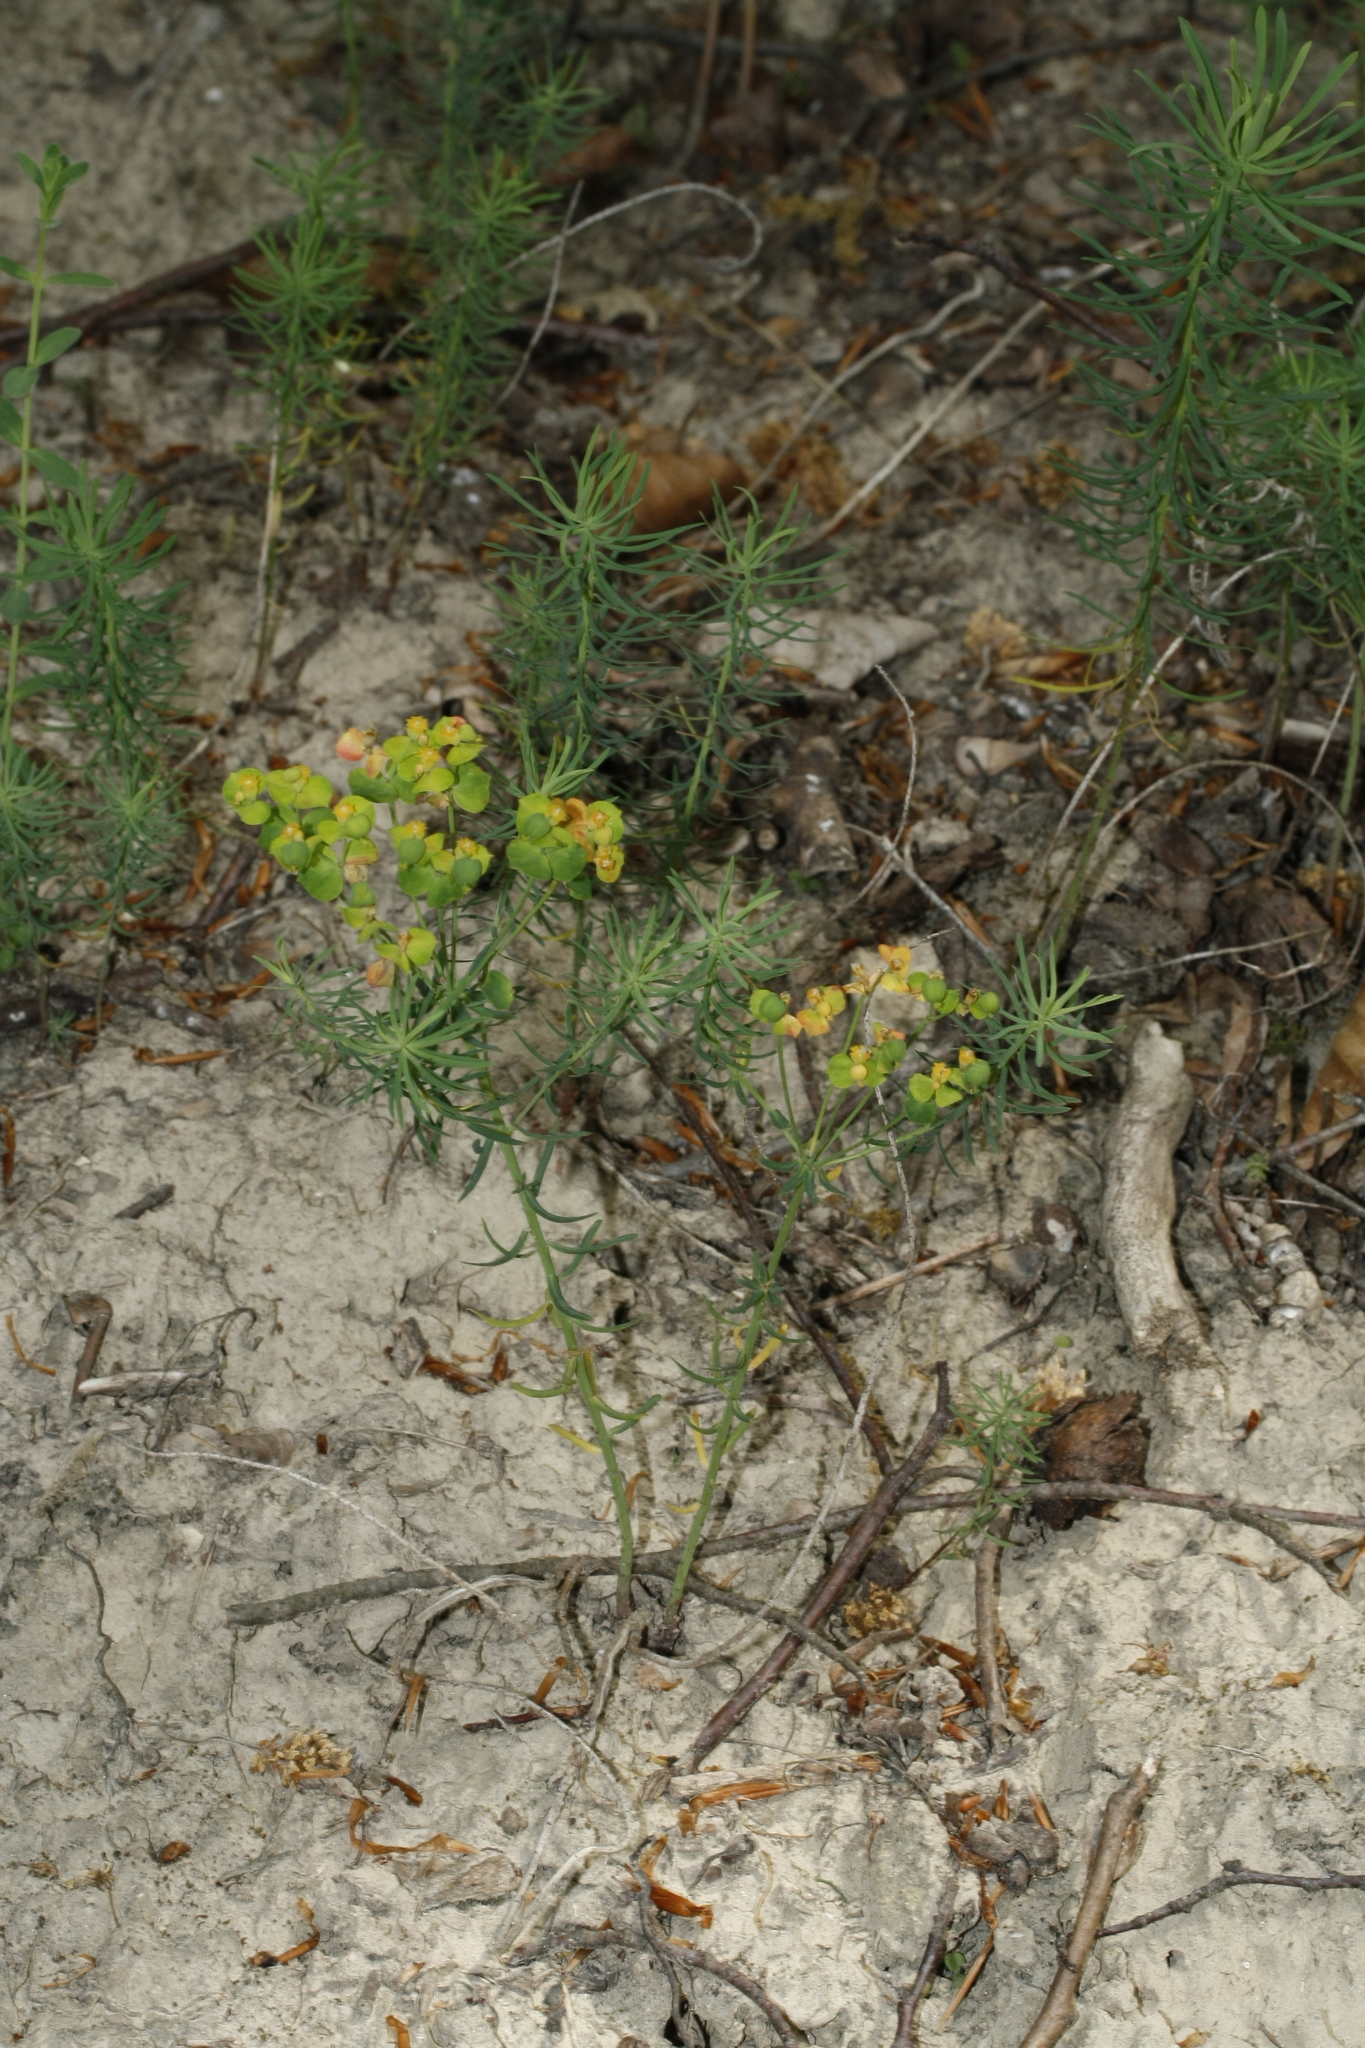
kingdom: Plantae
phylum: Tracheophyta
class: Magnoliopsida
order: Malpighiales
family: Euphorbiaceae
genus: Euphorbia
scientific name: Euphorbia cyparissias
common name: Cypress spurge
